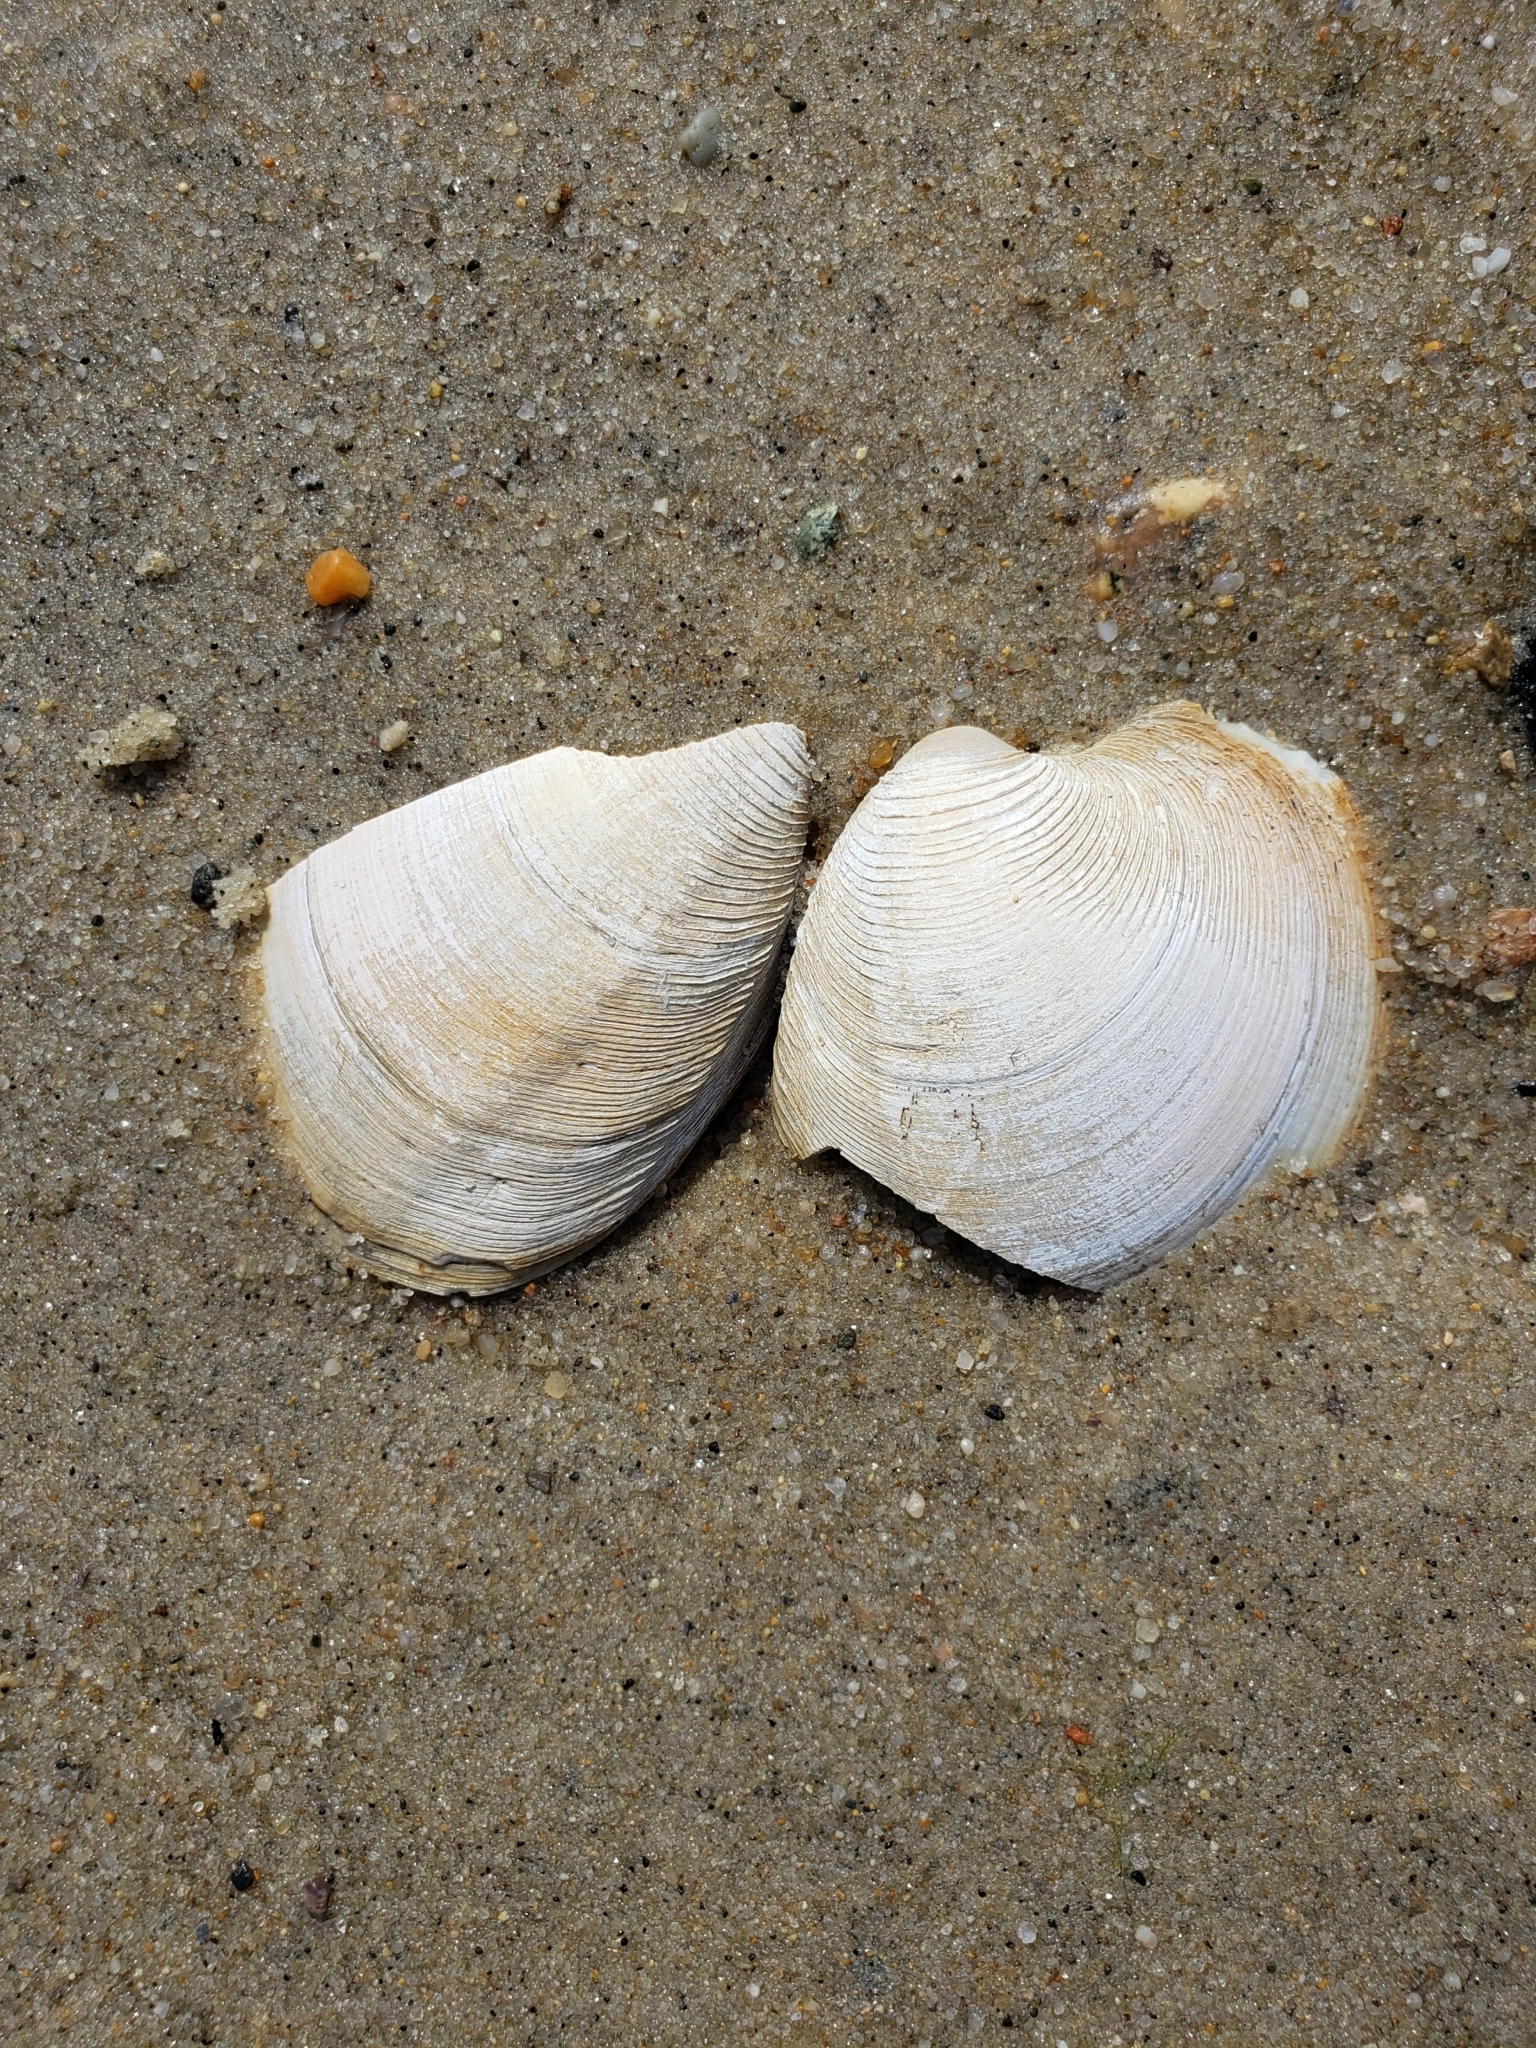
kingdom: Animalia
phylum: Mollusca
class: Bivalvia
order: Venerida
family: Veneridae
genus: Mercenaria
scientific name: Mercenaria mercenaria
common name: American hard-shelled clam
